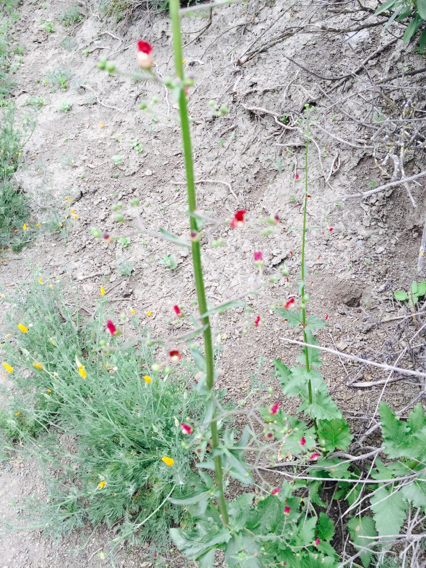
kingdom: Plantae
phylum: Tracheophyta
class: Magnoliopsida
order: Lamiales
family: Scrophulariaceae
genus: Scrophularia
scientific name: Scrophularia californica
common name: California figwort
